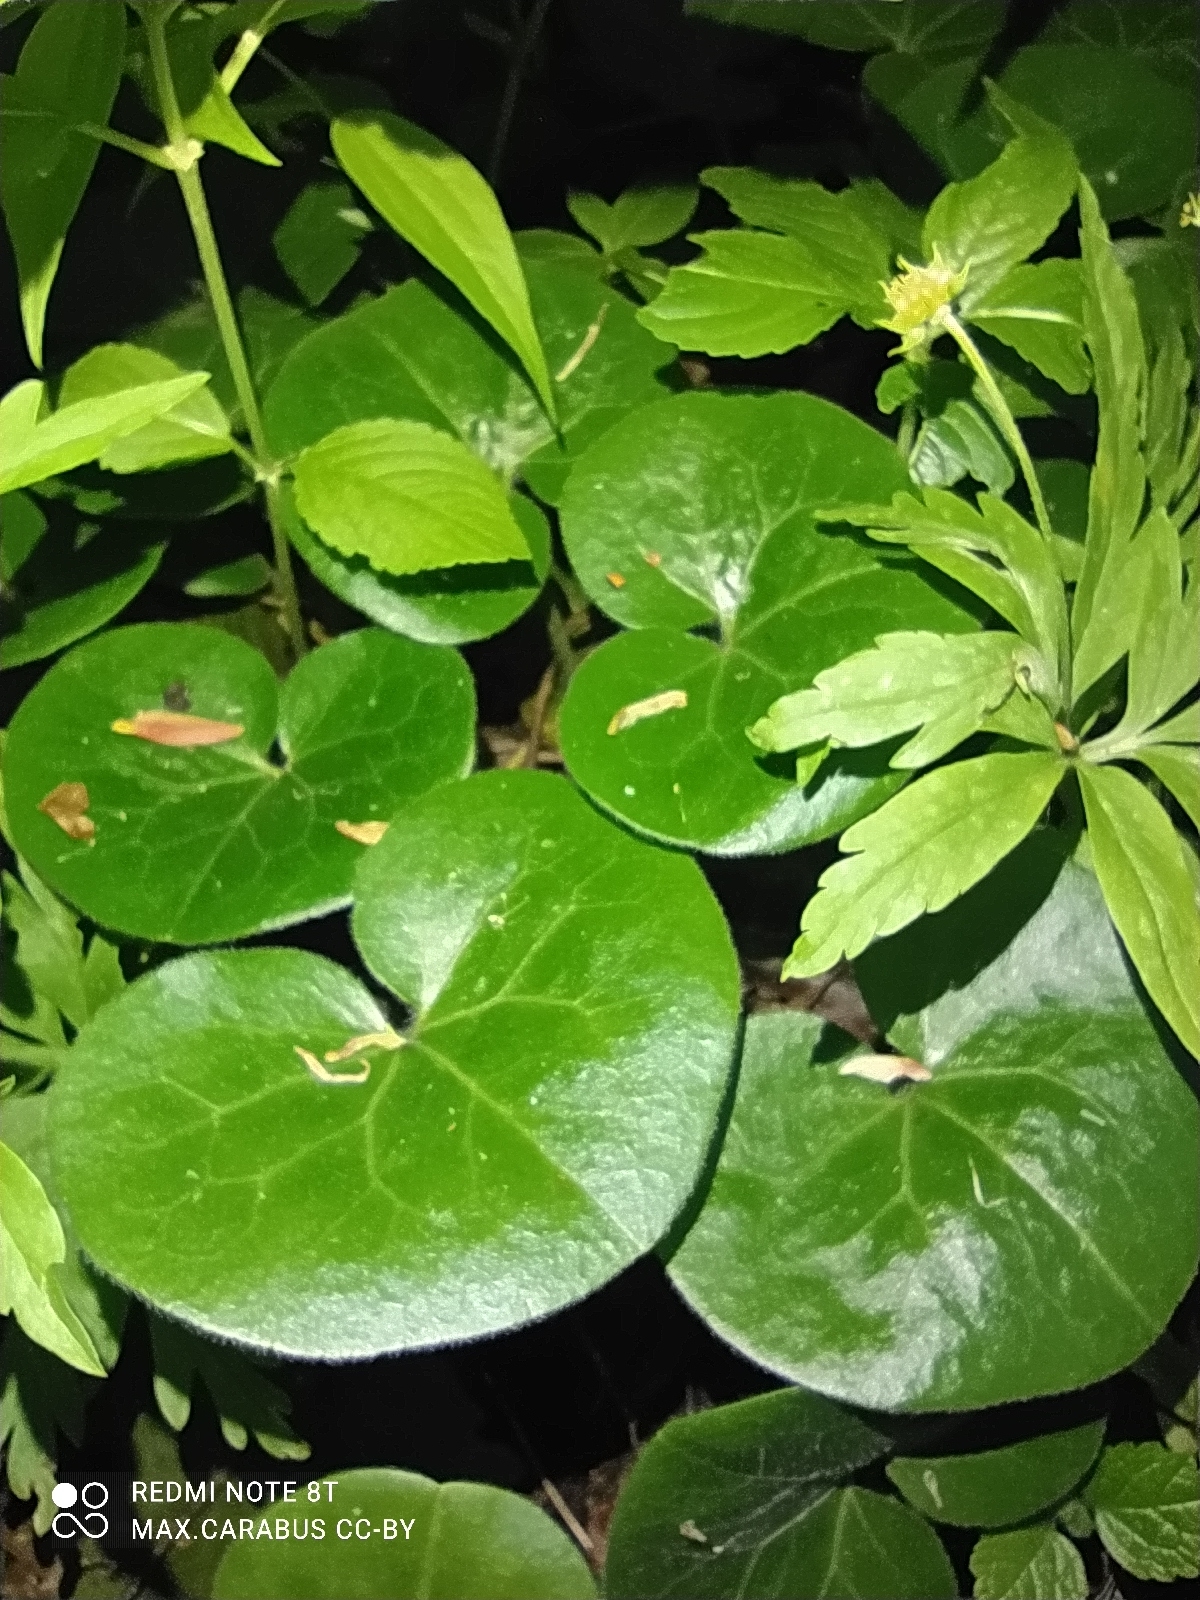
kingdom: Plantae
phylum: Tracheophyta
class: Magnoliopsida
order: Piperales
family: Aristolochiaceae
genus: Asarum
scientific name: Asarum europaeum
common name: Asarabacca
